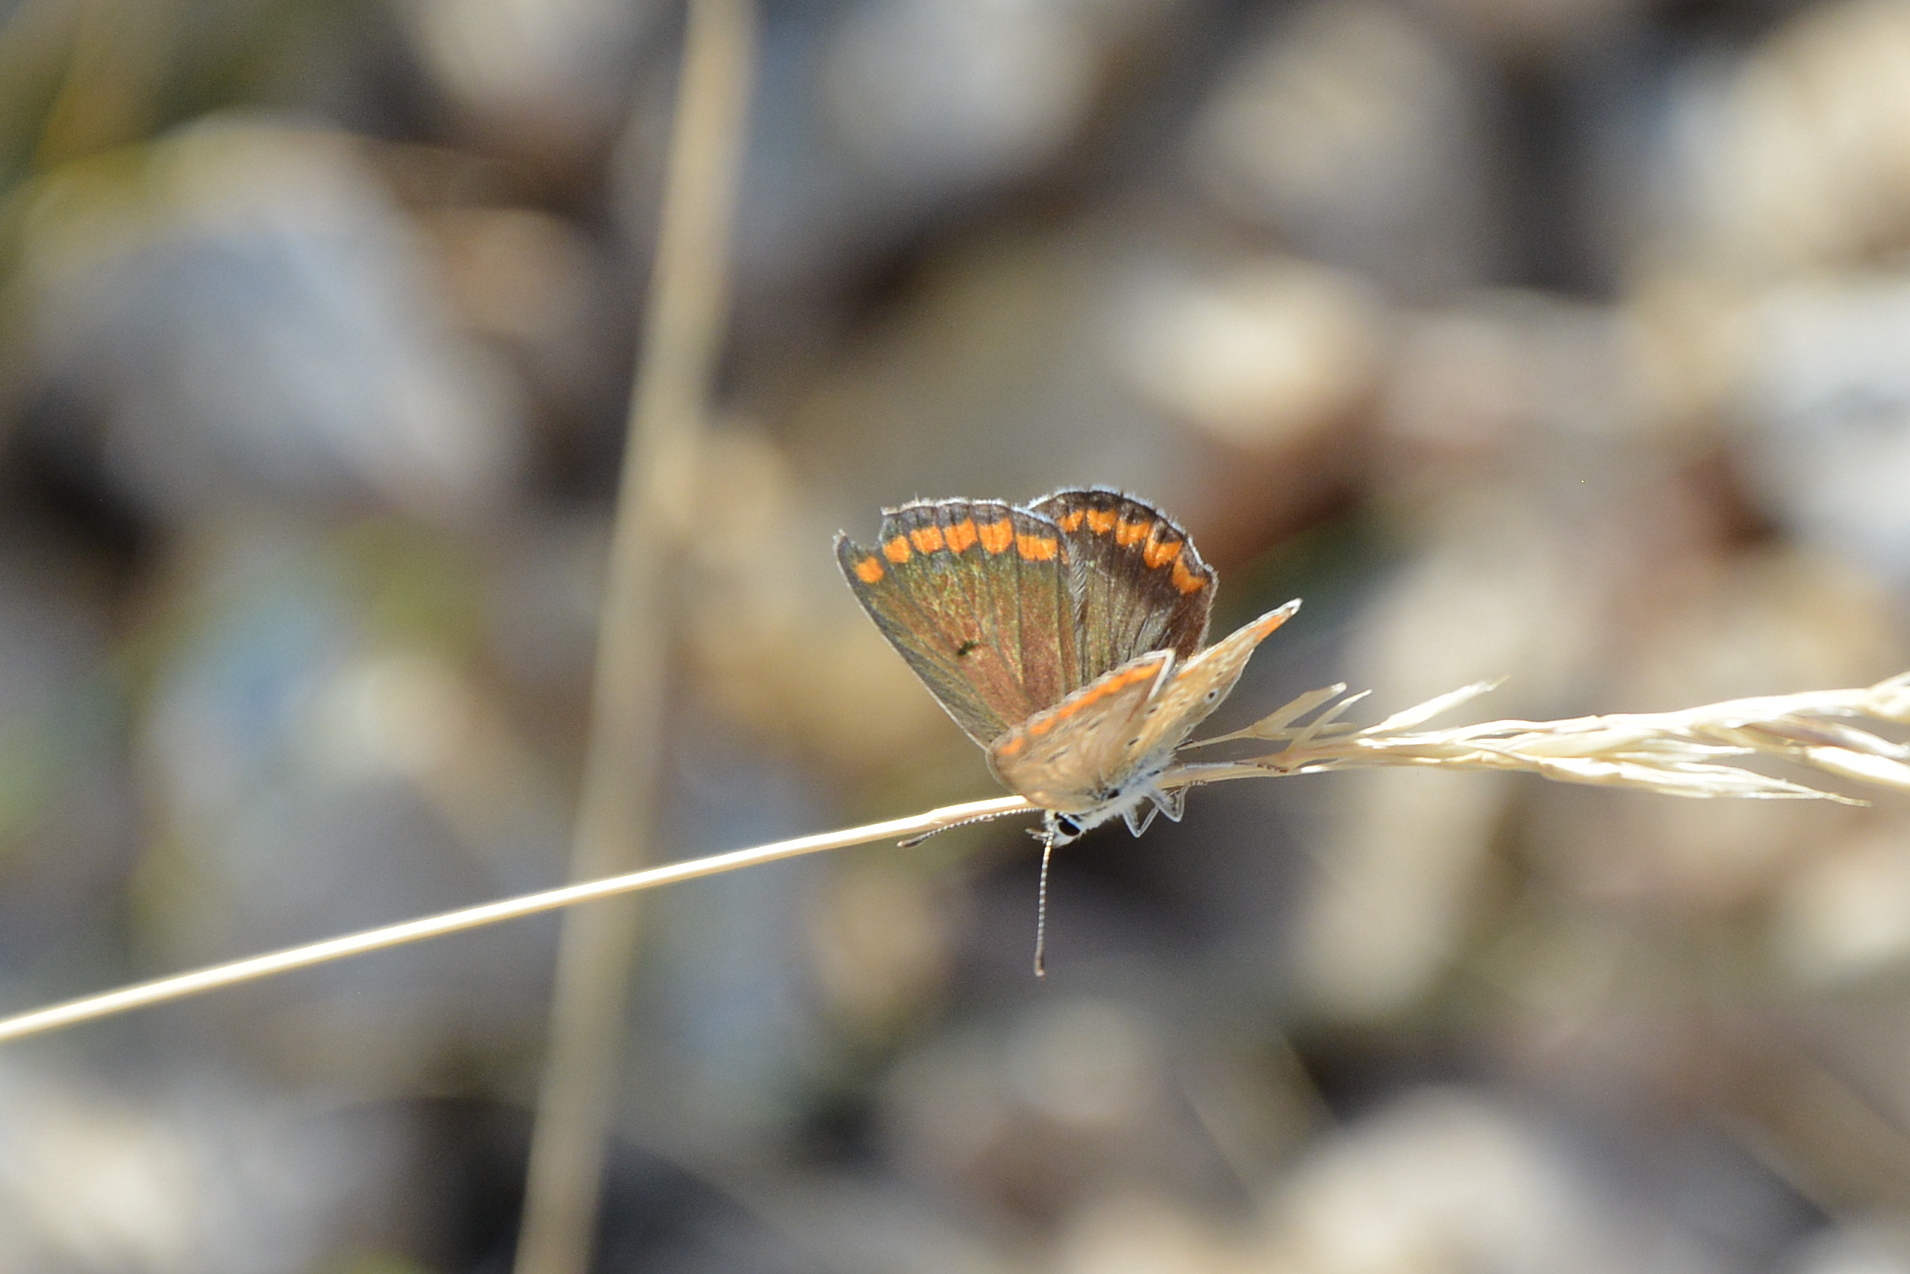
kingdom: Animalia
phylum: Arthropoda
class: Insecta
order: Lepidoptera
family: Lycaenidae
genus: Aricia
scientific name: Aricia agestis
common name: Brown argus
